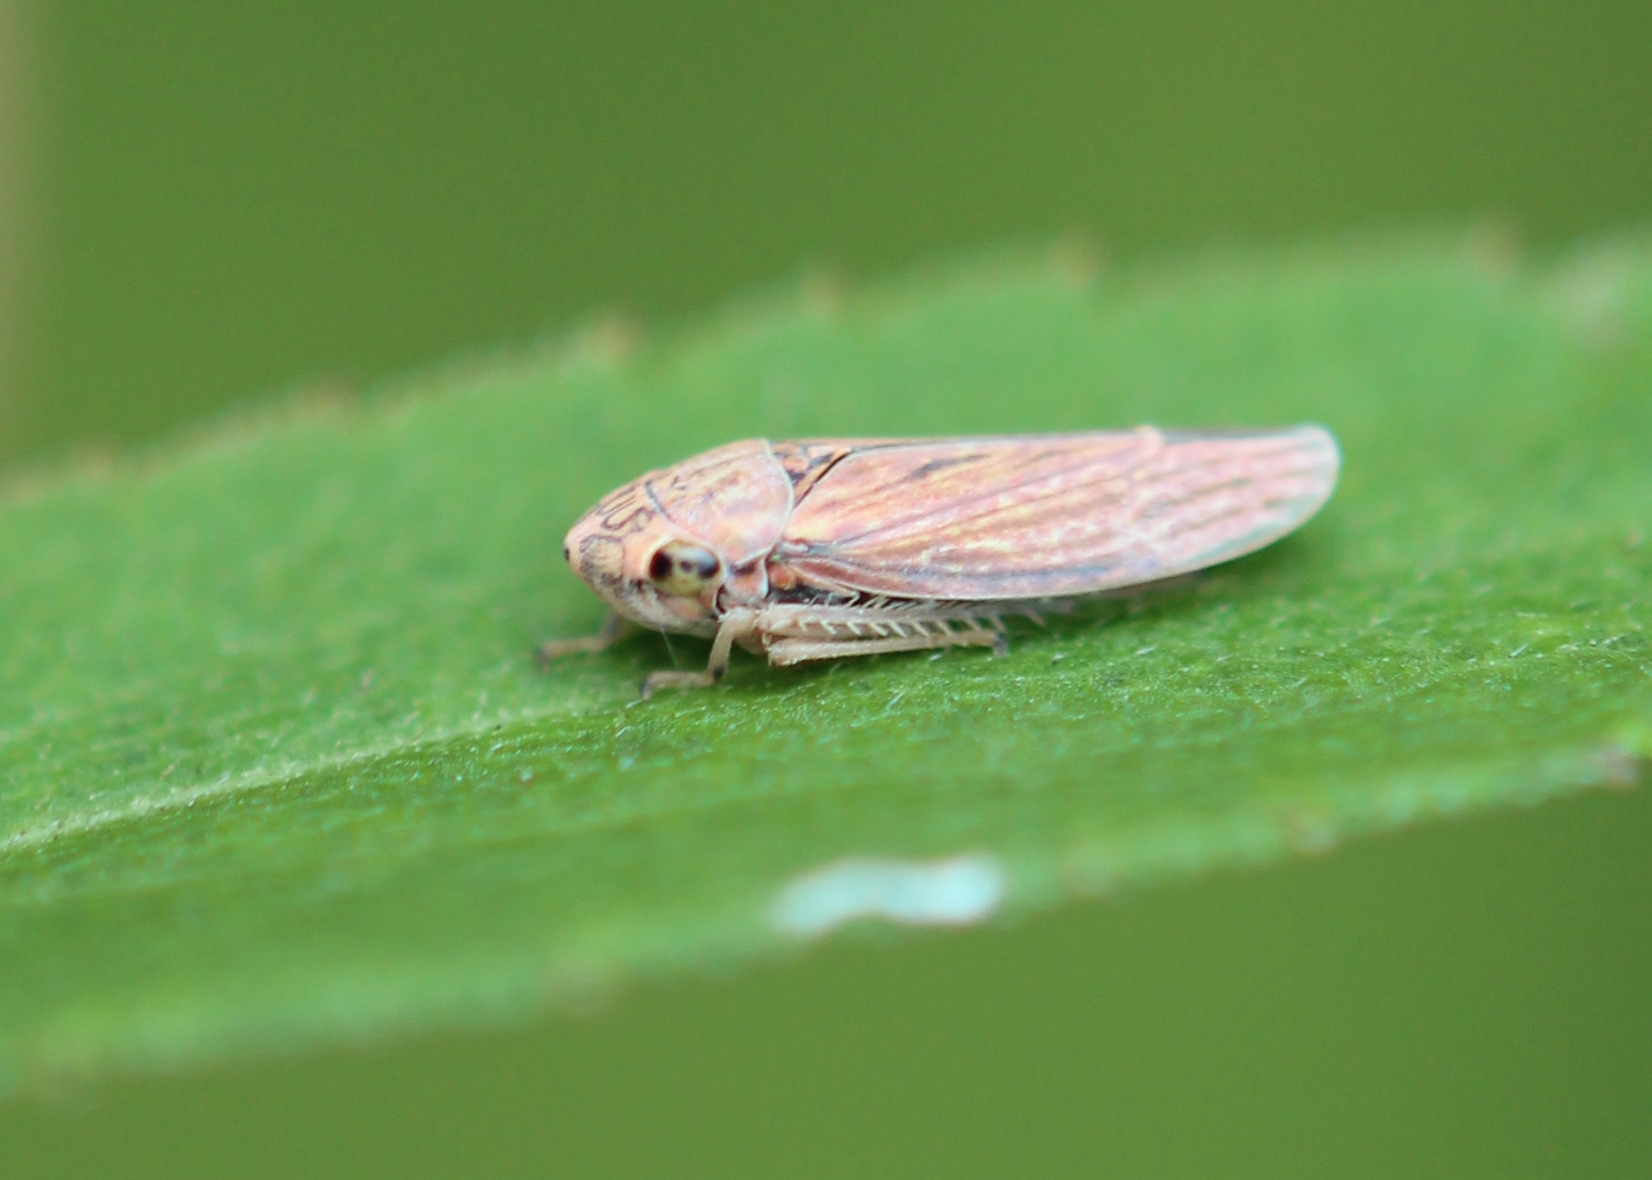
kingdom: Animalia
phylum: Arthropoda
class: Insecta
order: Hemiptera
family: Cicadellidae
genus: Neokolla
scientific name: Neokolla hieroglyphica
